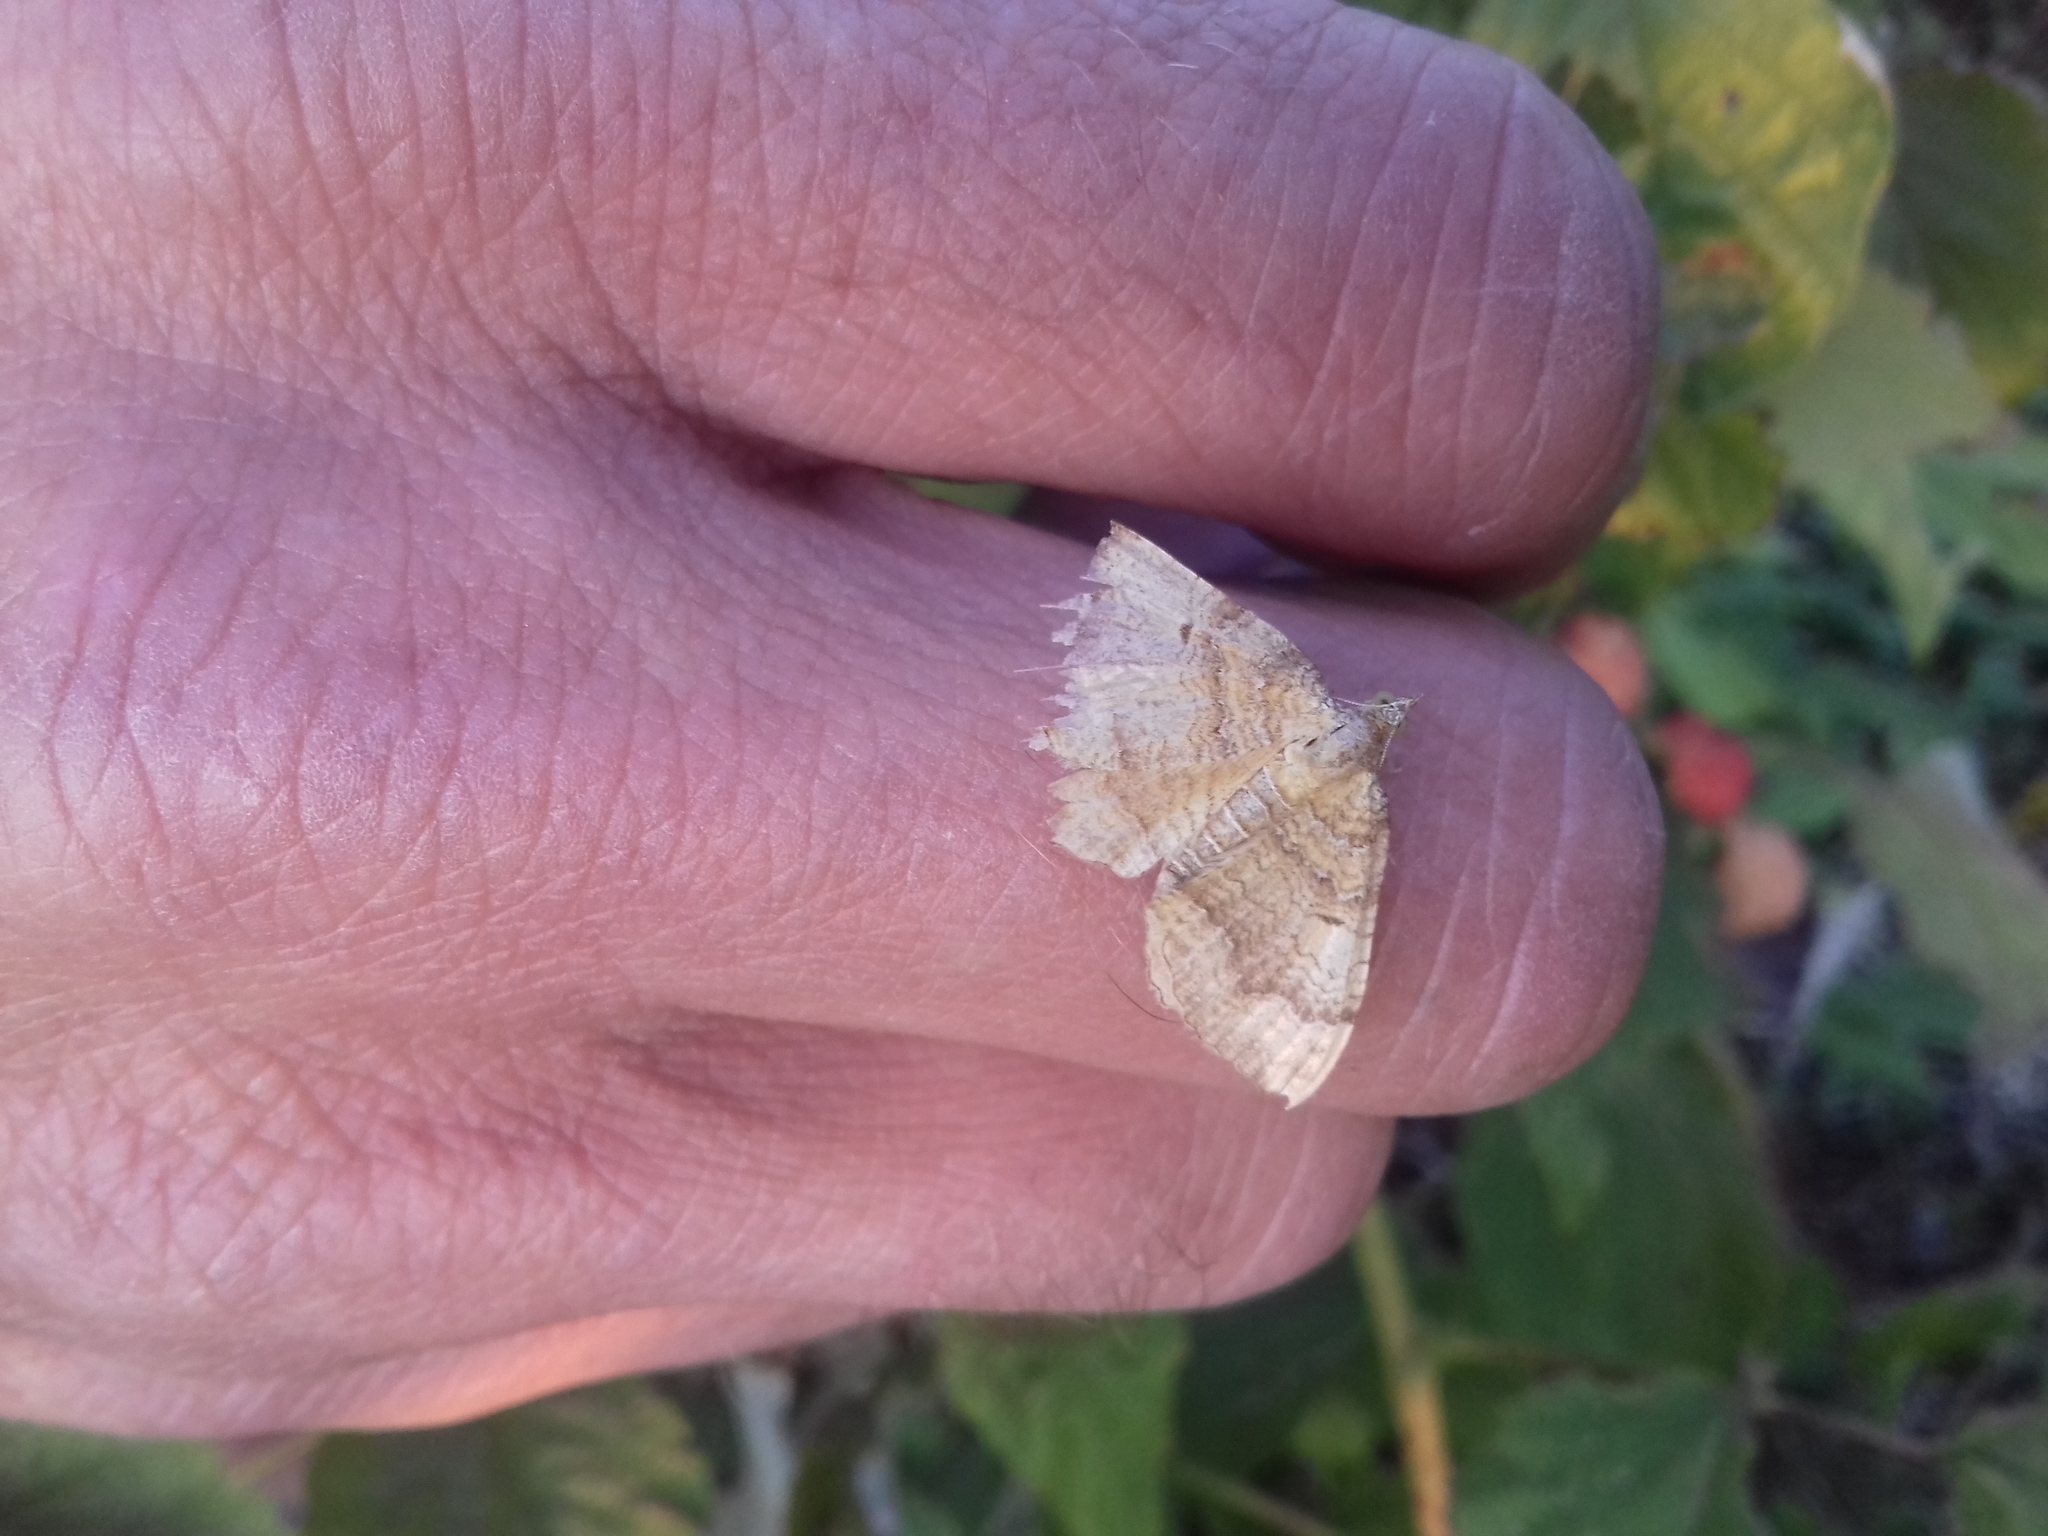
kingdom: Animalia
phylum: Arthropoda
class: Insecta
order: Lepidoptera
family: Geometridae
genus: Camptogramma
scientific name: Camptogramma bilineata
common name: Yellow shell
